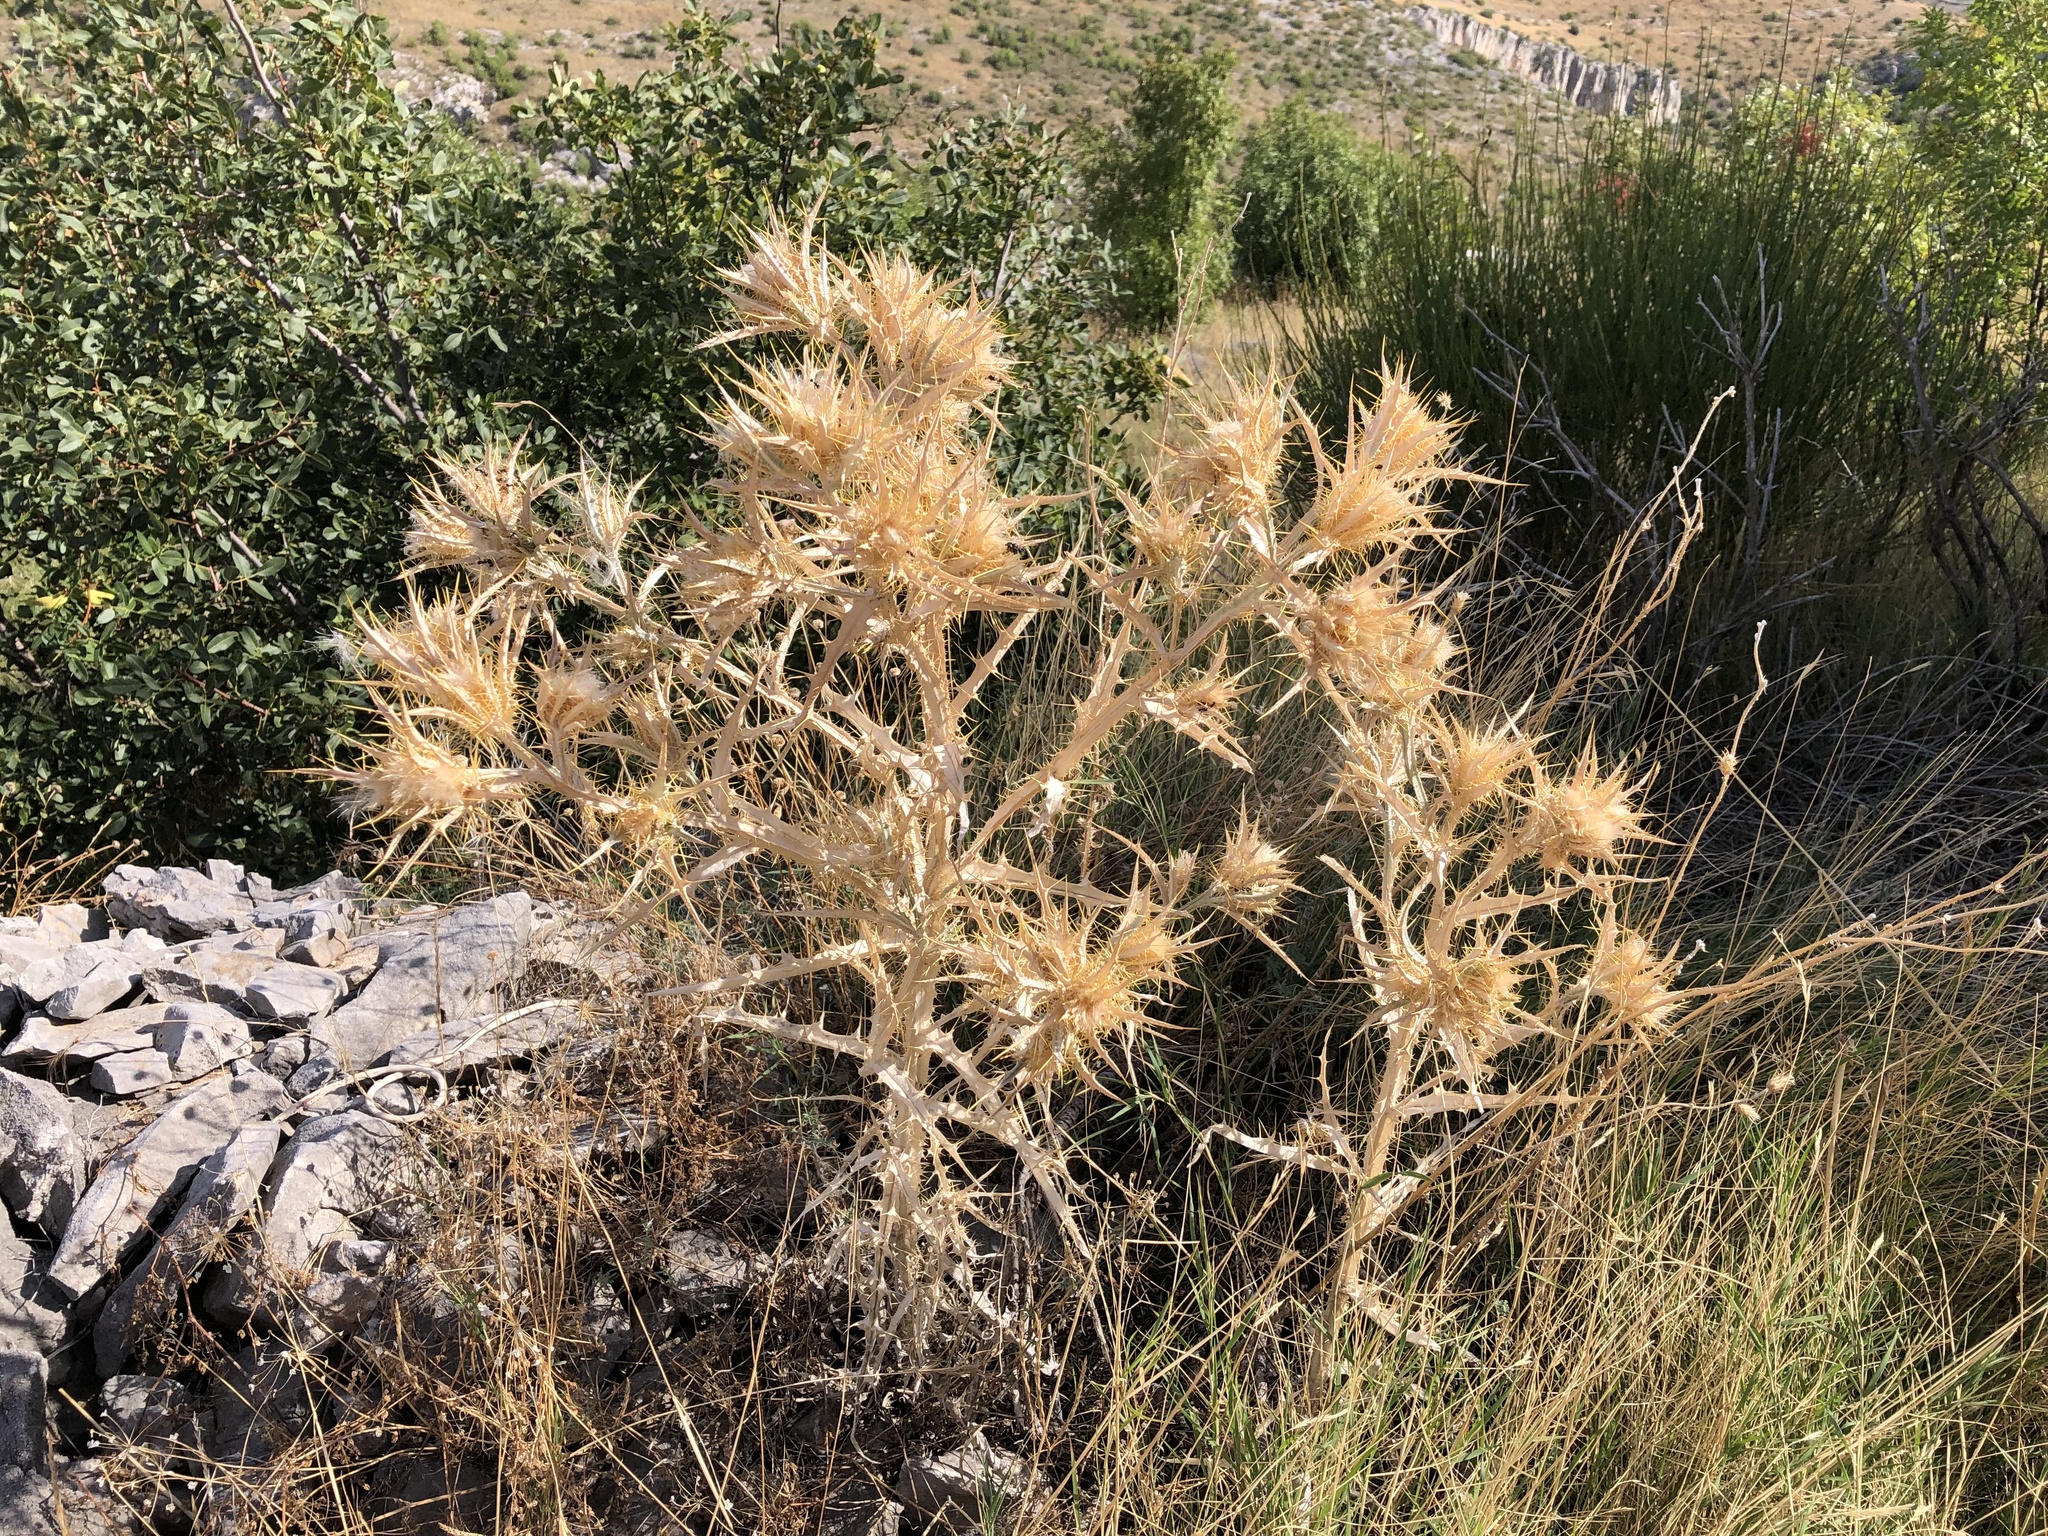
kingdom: Plantae
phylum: Tracheophyta
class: Magnoliopsida
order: Asterales
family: Asteraceae
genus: Picnomon
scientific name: Picnomon acarna
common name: Soldier thistle
